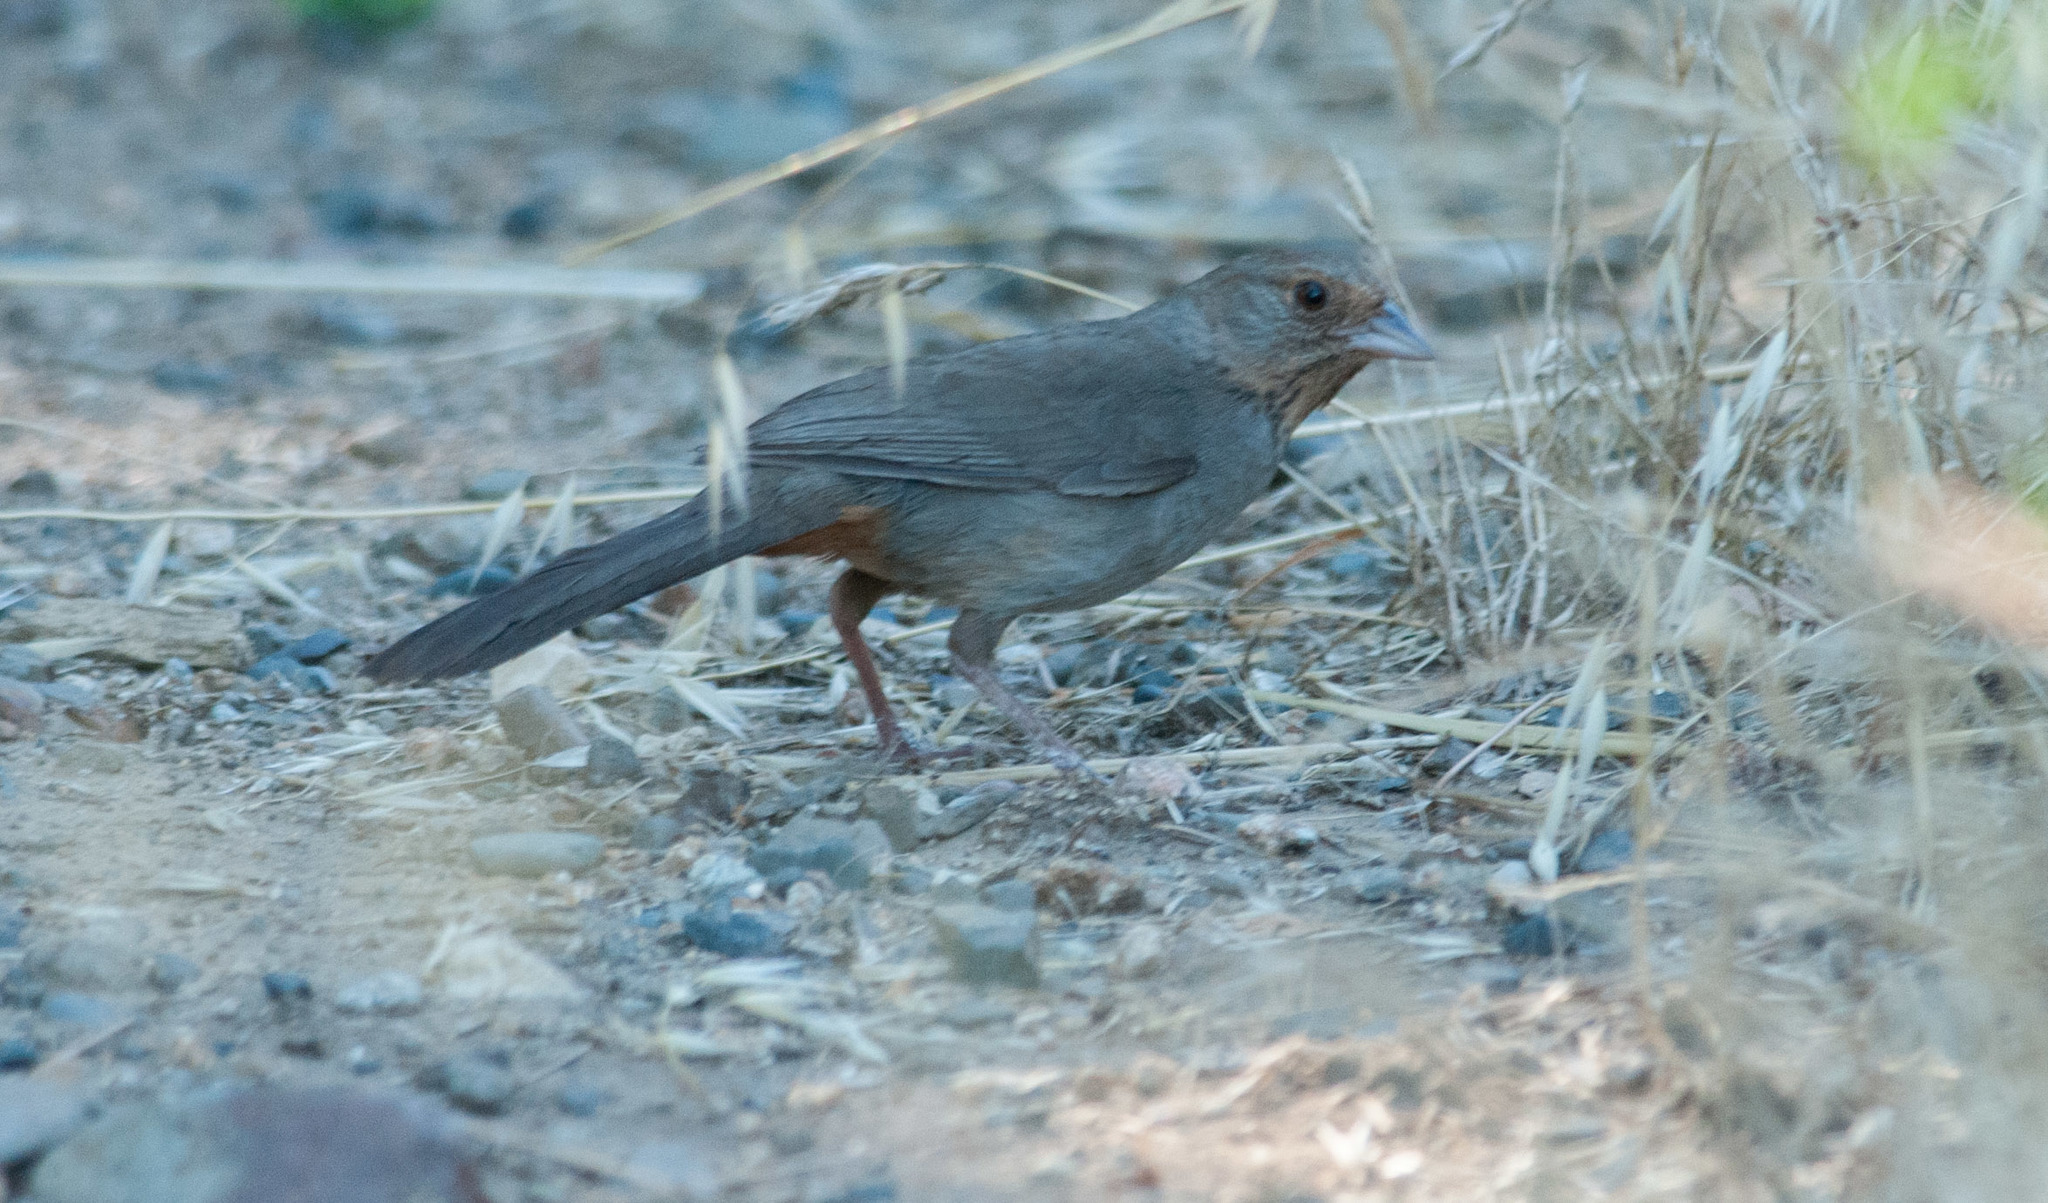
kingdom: Animalia
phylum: Chordata
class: Aves
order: Passeriformes
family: Passerellidae
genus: Melozone
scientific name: Melozone crissalis
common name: California towhee
